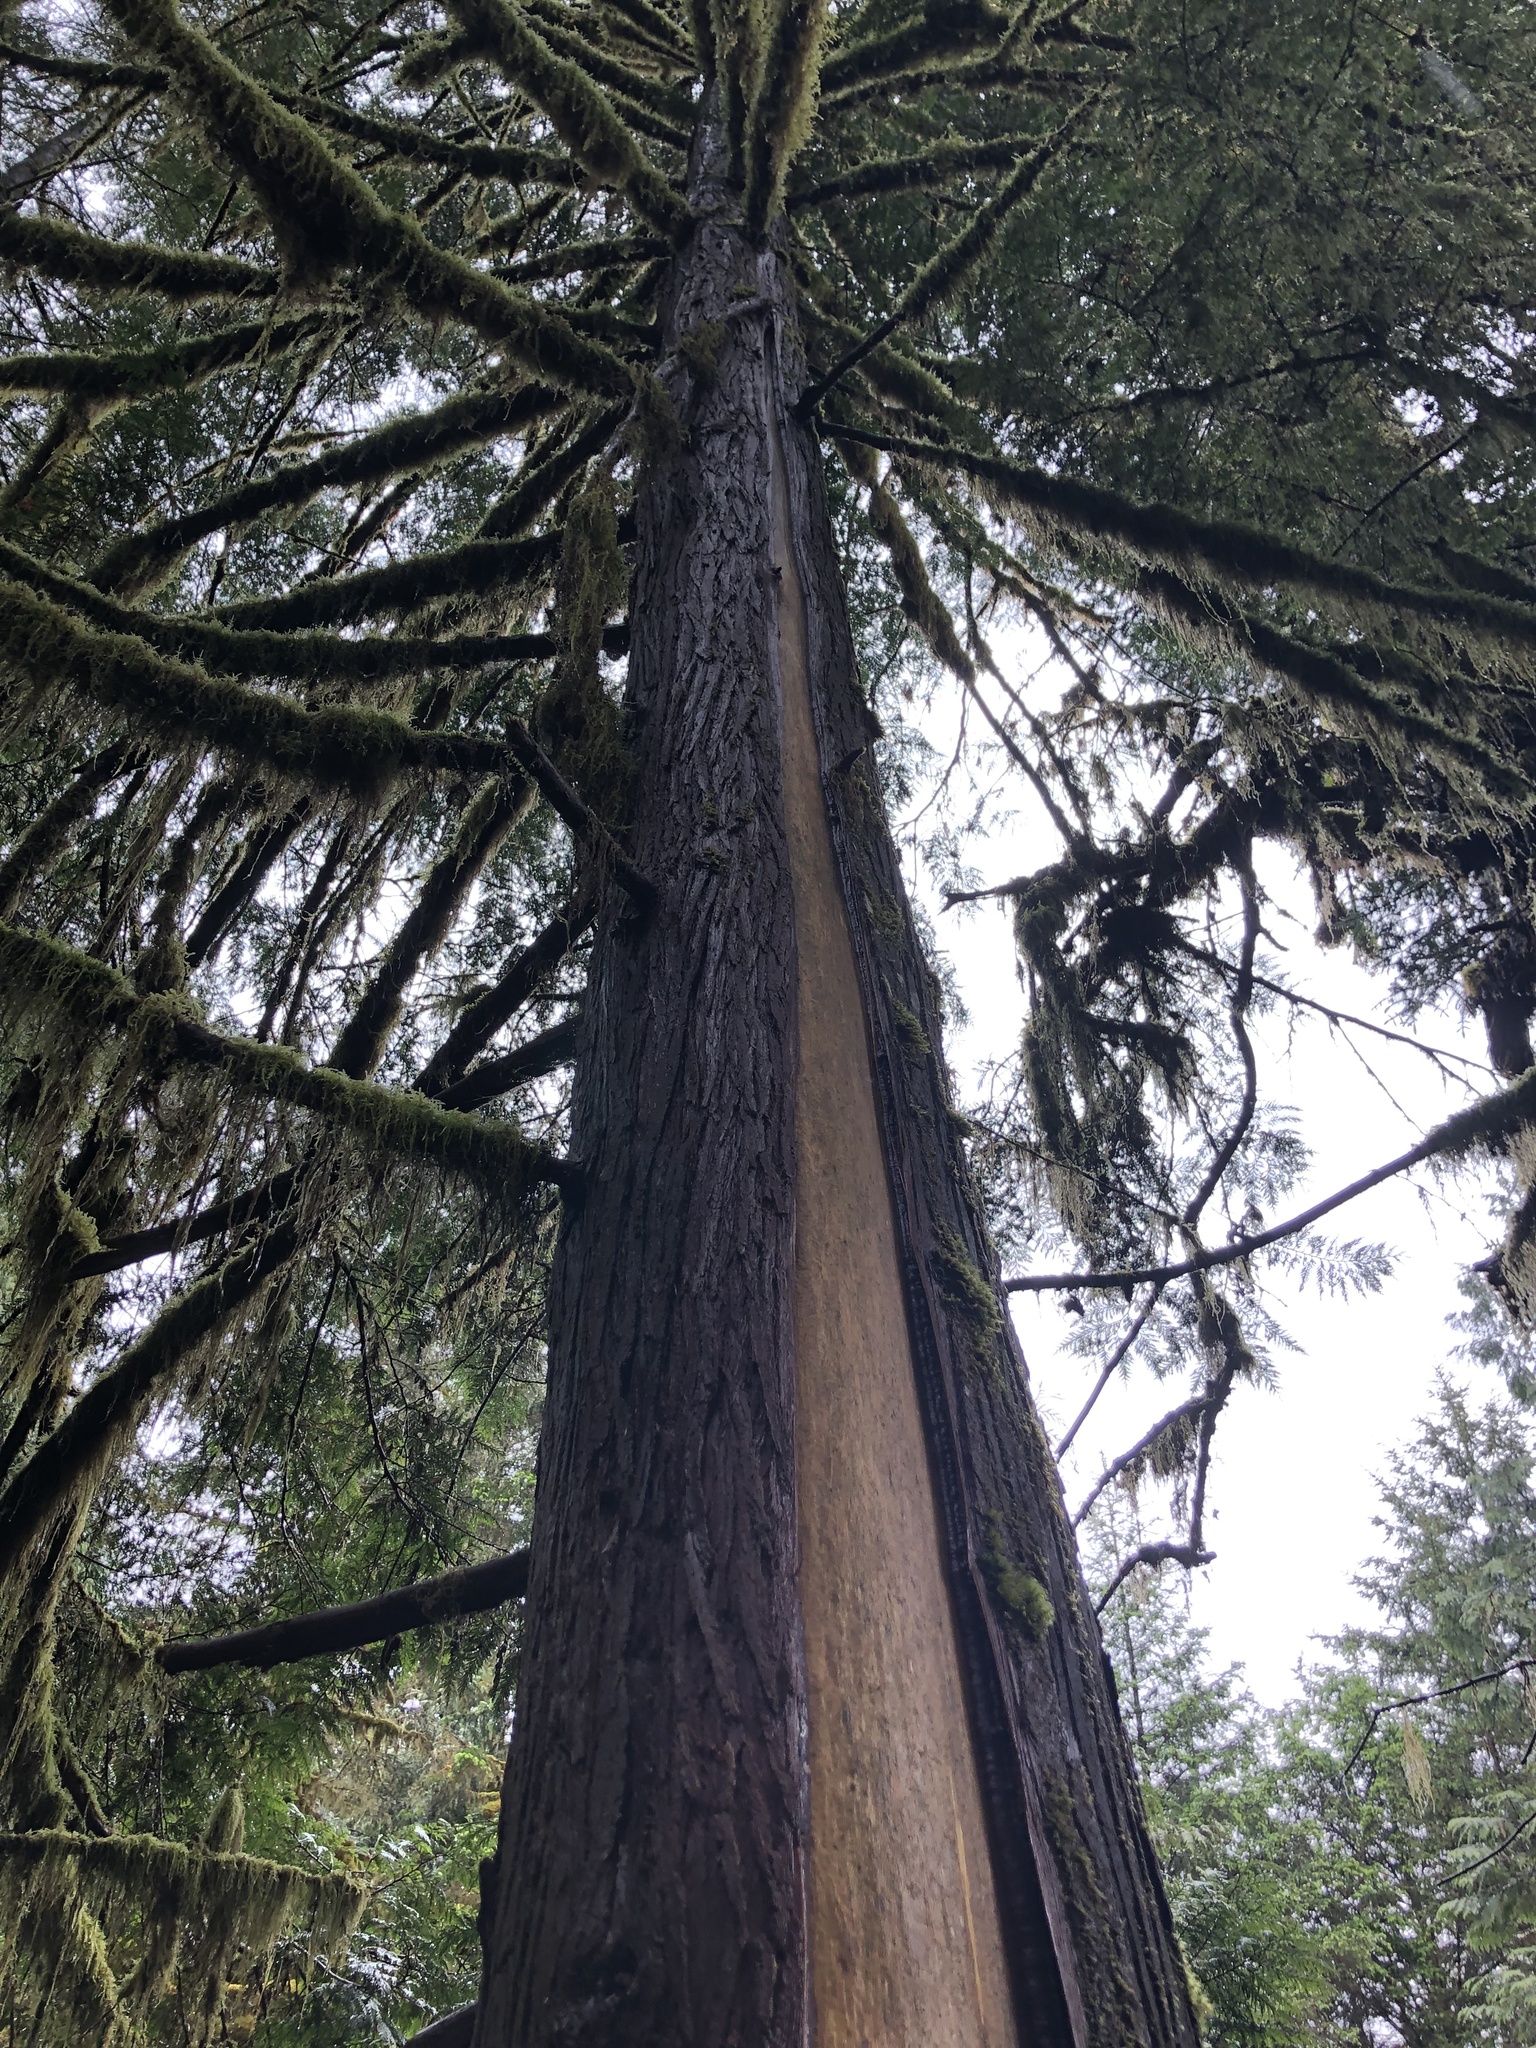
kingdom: Plantae
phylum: Tracheophyta
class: Pinopsida
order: Pinales
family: Cupressaceae
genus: Thuja
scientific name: Thuja plicata
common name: Western red-cedar
